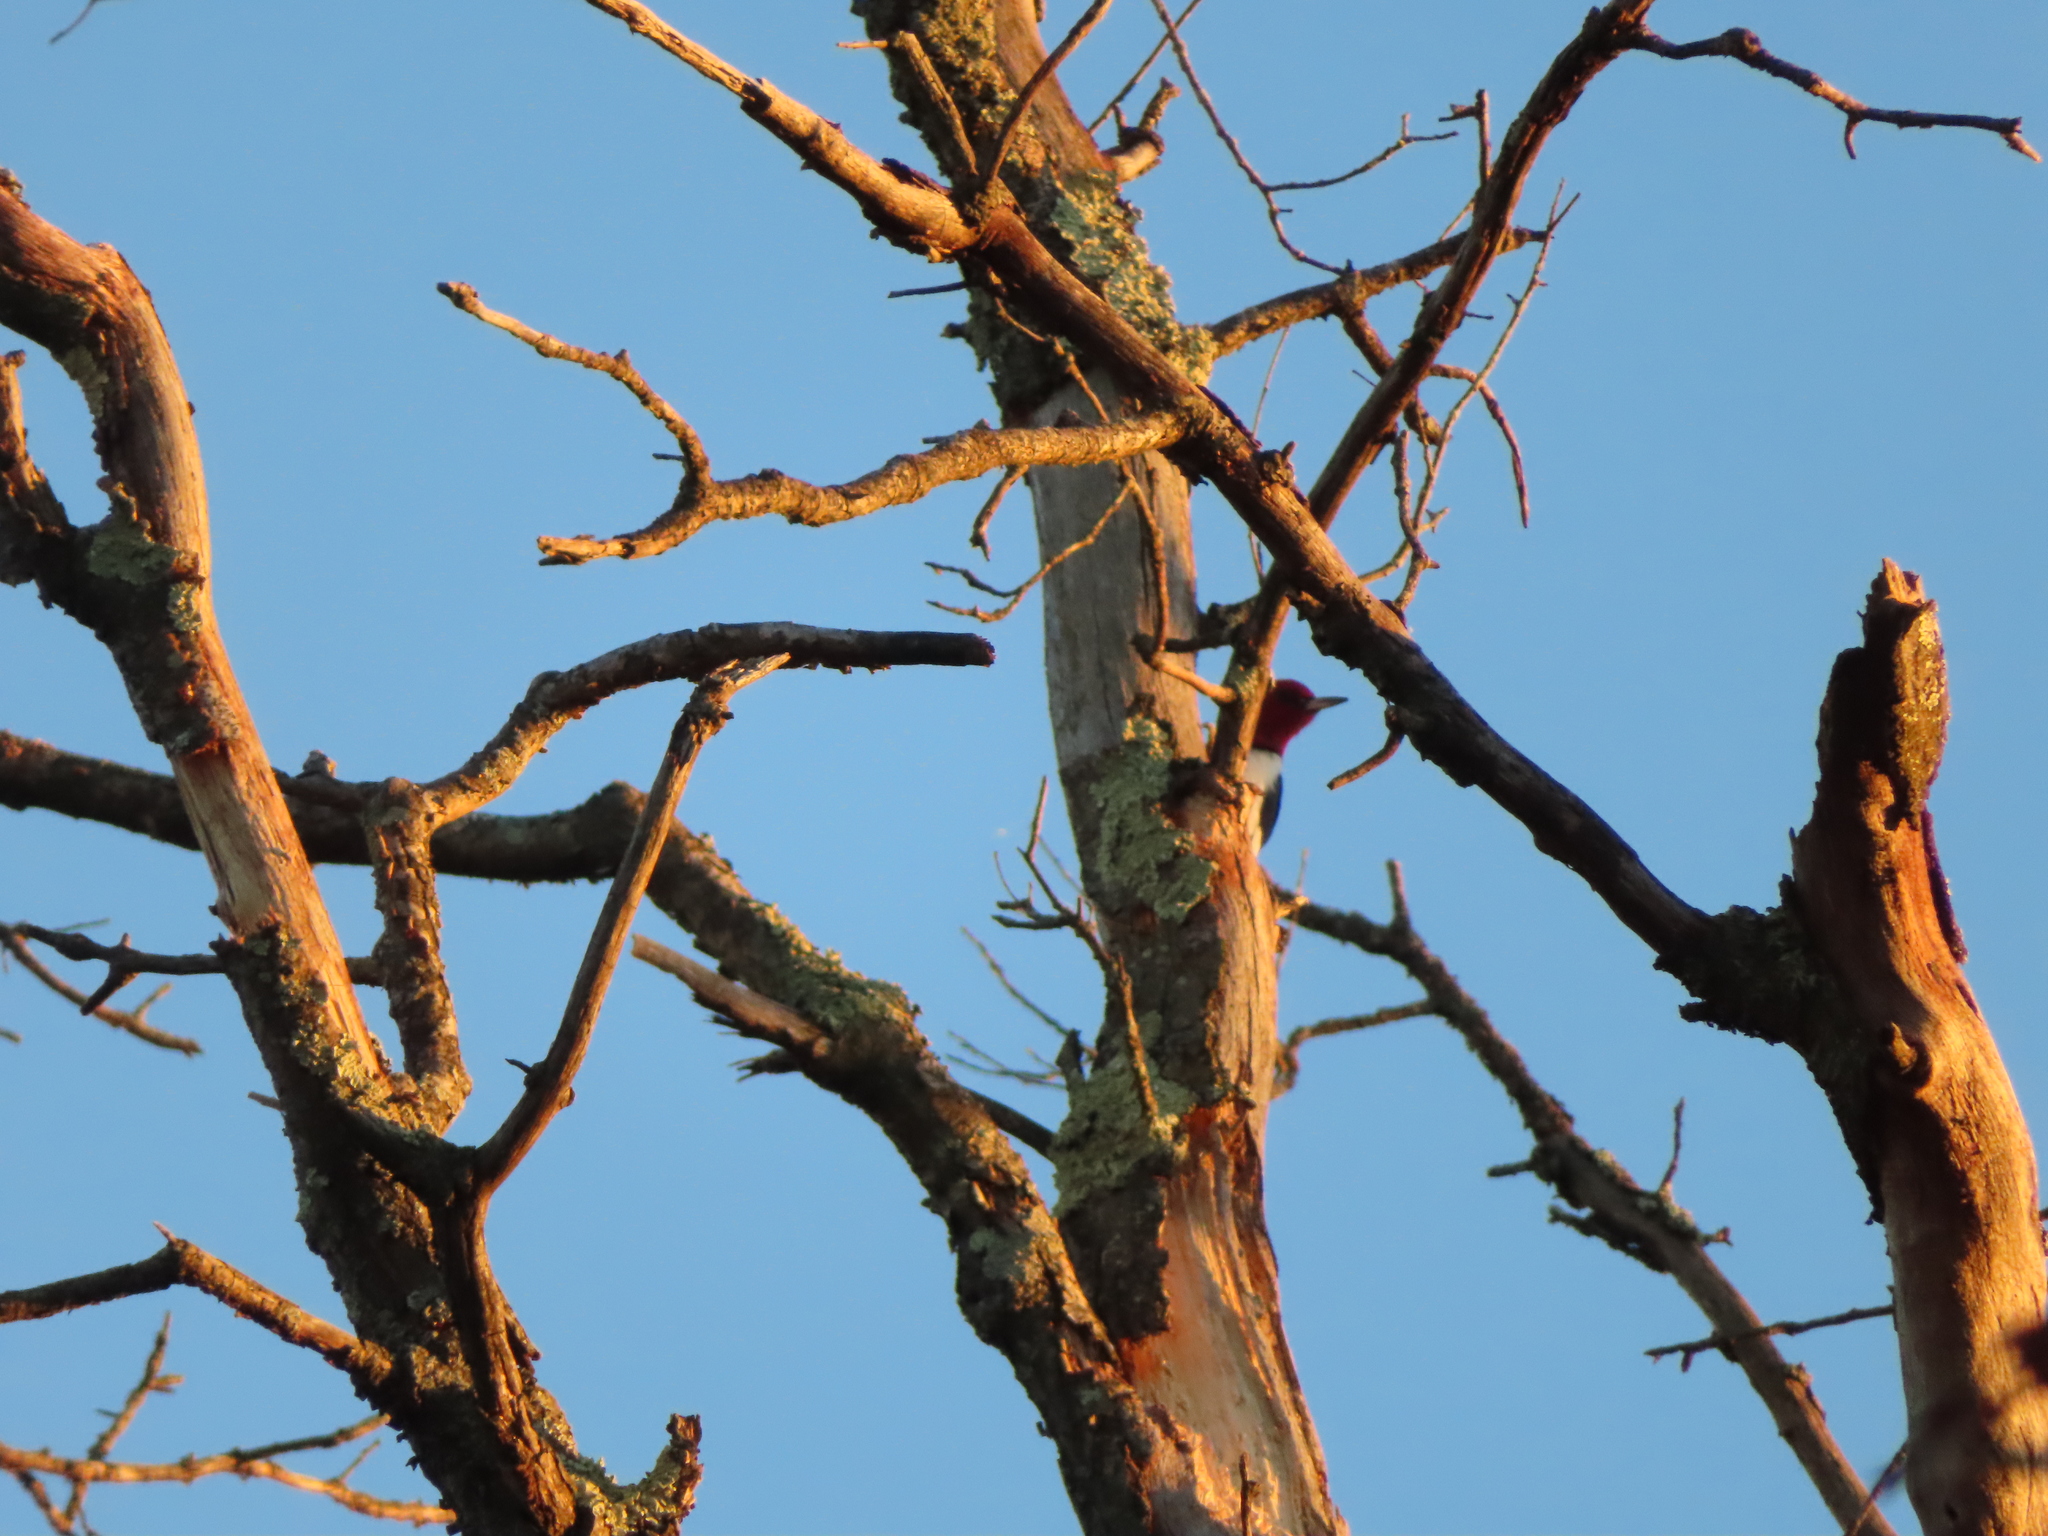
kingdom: Animalia
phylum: Chordata
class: Aves
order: Piciformes
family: Picidae
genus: Melanerpes
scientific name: Melanerpes erythrocephalus
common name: Red-headed woodpecker
